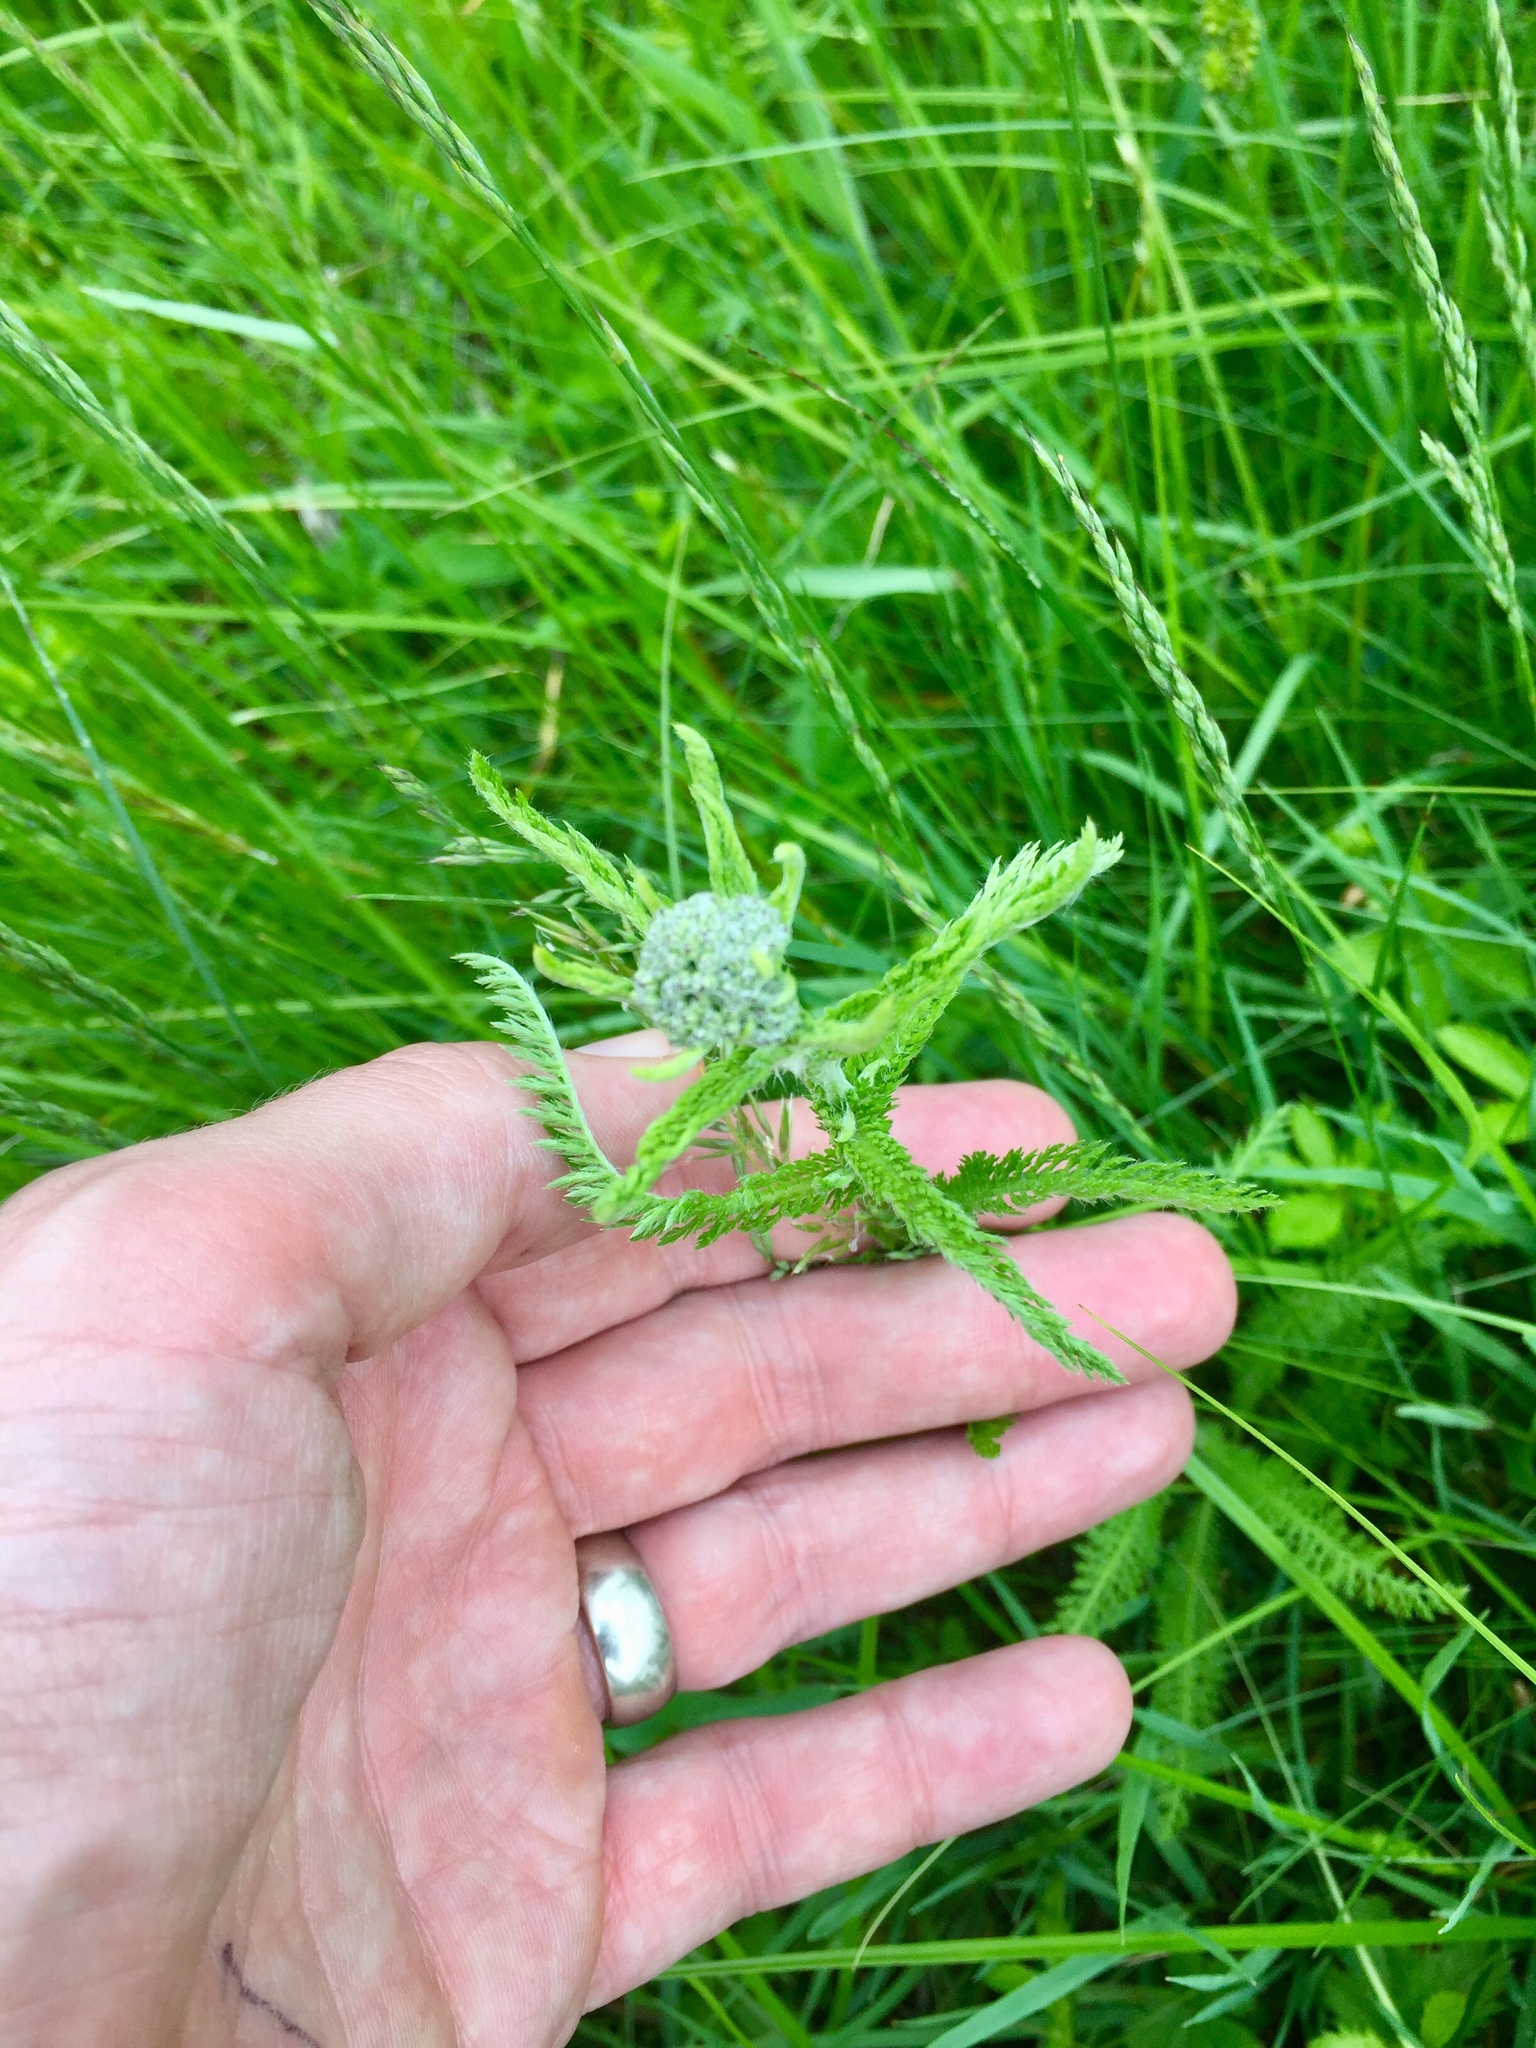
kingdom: Plantae
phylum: Tracheophyta
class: Magnoliopsida
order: Asterales
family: Asteraceae
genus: Achillea
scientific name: Achillea millefolium
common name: Yarrow
